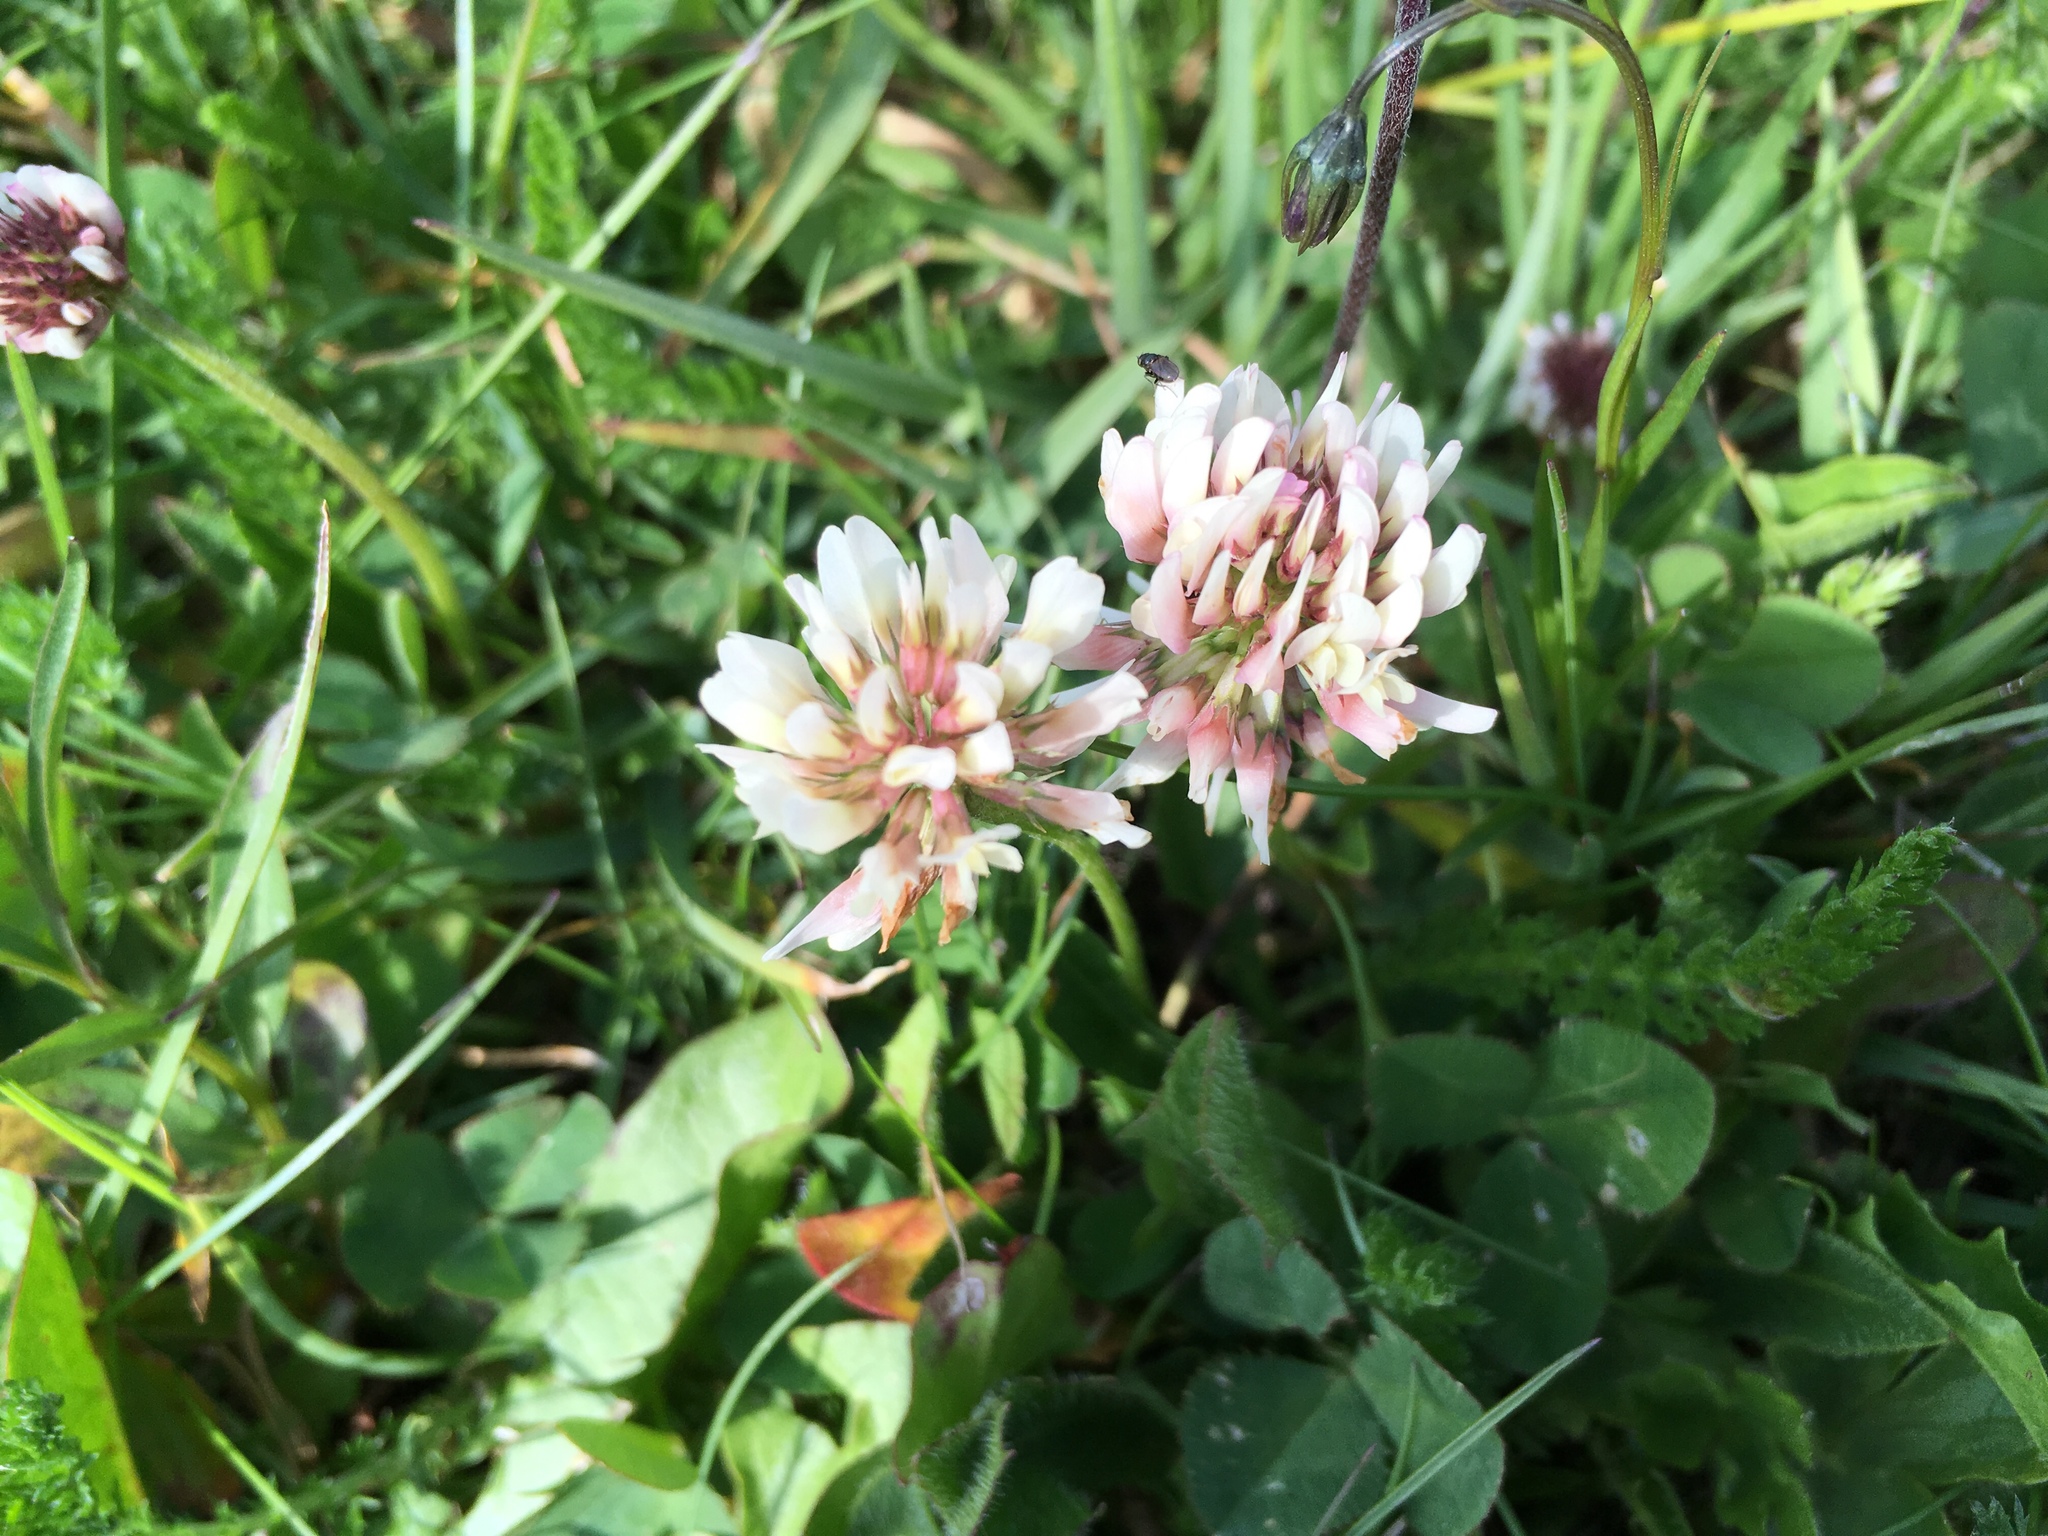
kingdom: Plantae
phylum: Tracheophyta
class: Magnoliopsida
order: Fabales
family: Fabaceae
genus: Trifolium
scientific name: Trifolium repens
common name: White clover
